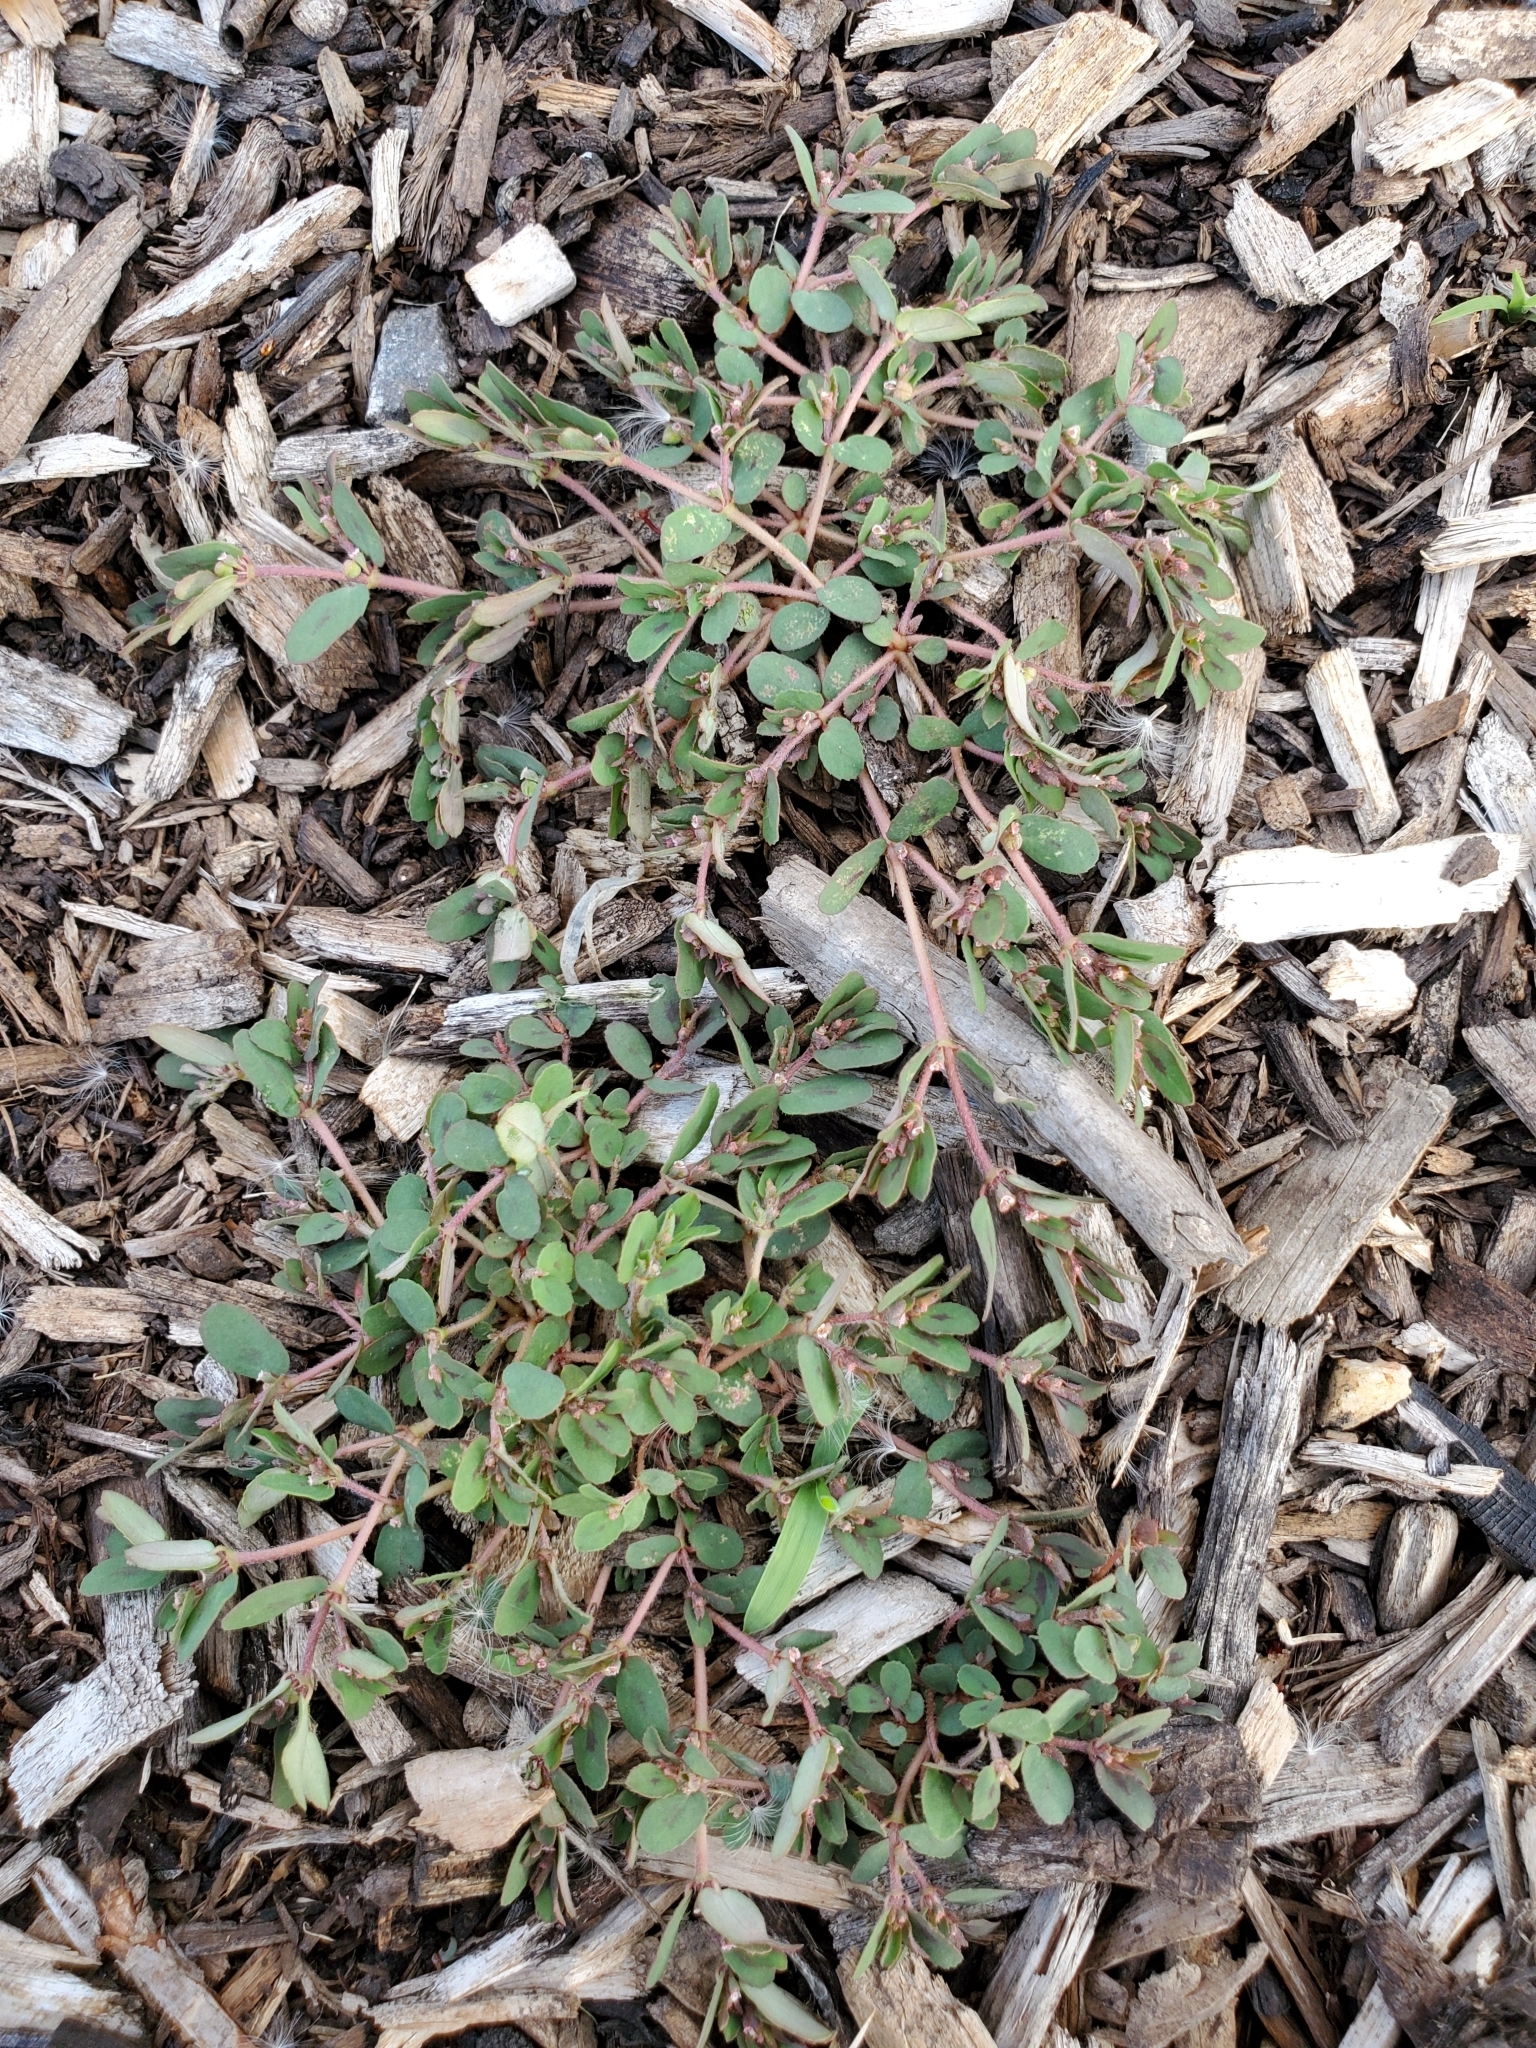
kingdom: Plantae
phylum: Tracheophyta
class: Magnoliopsida
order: Malpighiales
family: Euphorbiaceae
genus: Euphorbia
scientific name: Euphorbia maculata
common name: Spotted spurge
